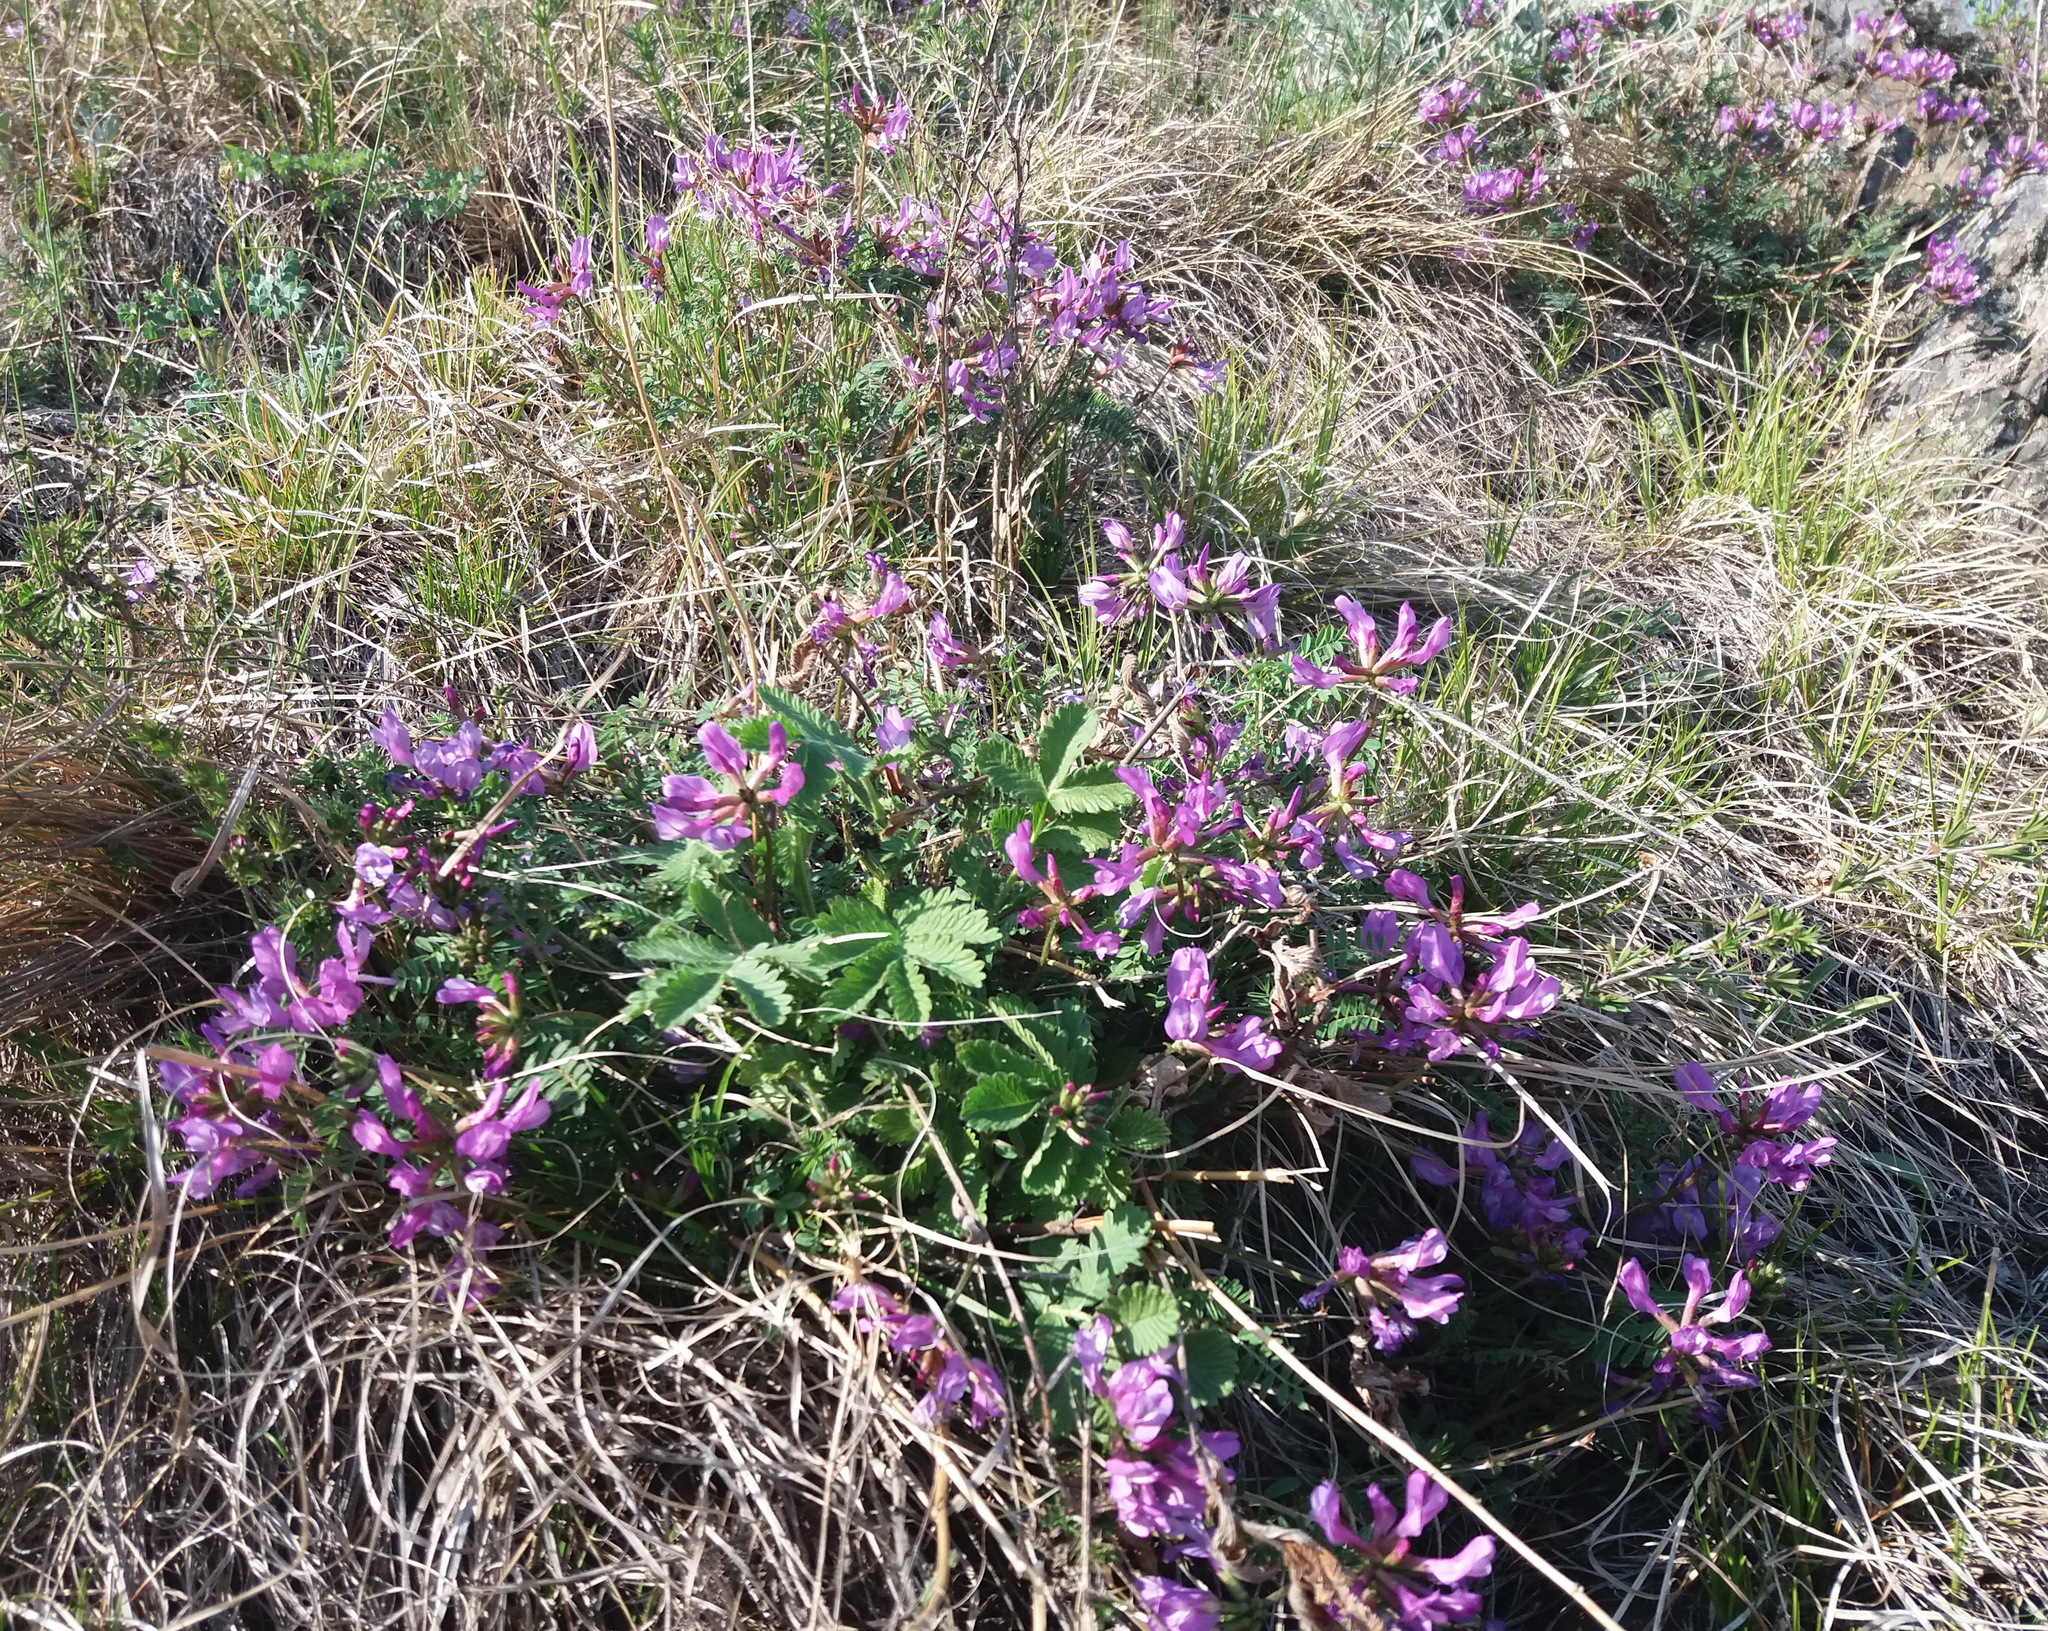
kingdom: Plantae
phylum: Tracheophyta
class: Magnoliopsida
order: Fabales
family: Fabaceae
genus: Astragalus
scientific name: Astragalus ceratoides
